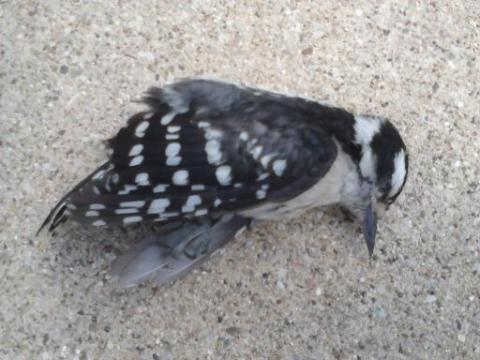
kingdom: Animalia
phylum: Chordata
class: Aves
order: Piciformes
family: Picidae
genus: Dryobates
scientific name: Dryobates pubescens
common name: Downy woodpecker
